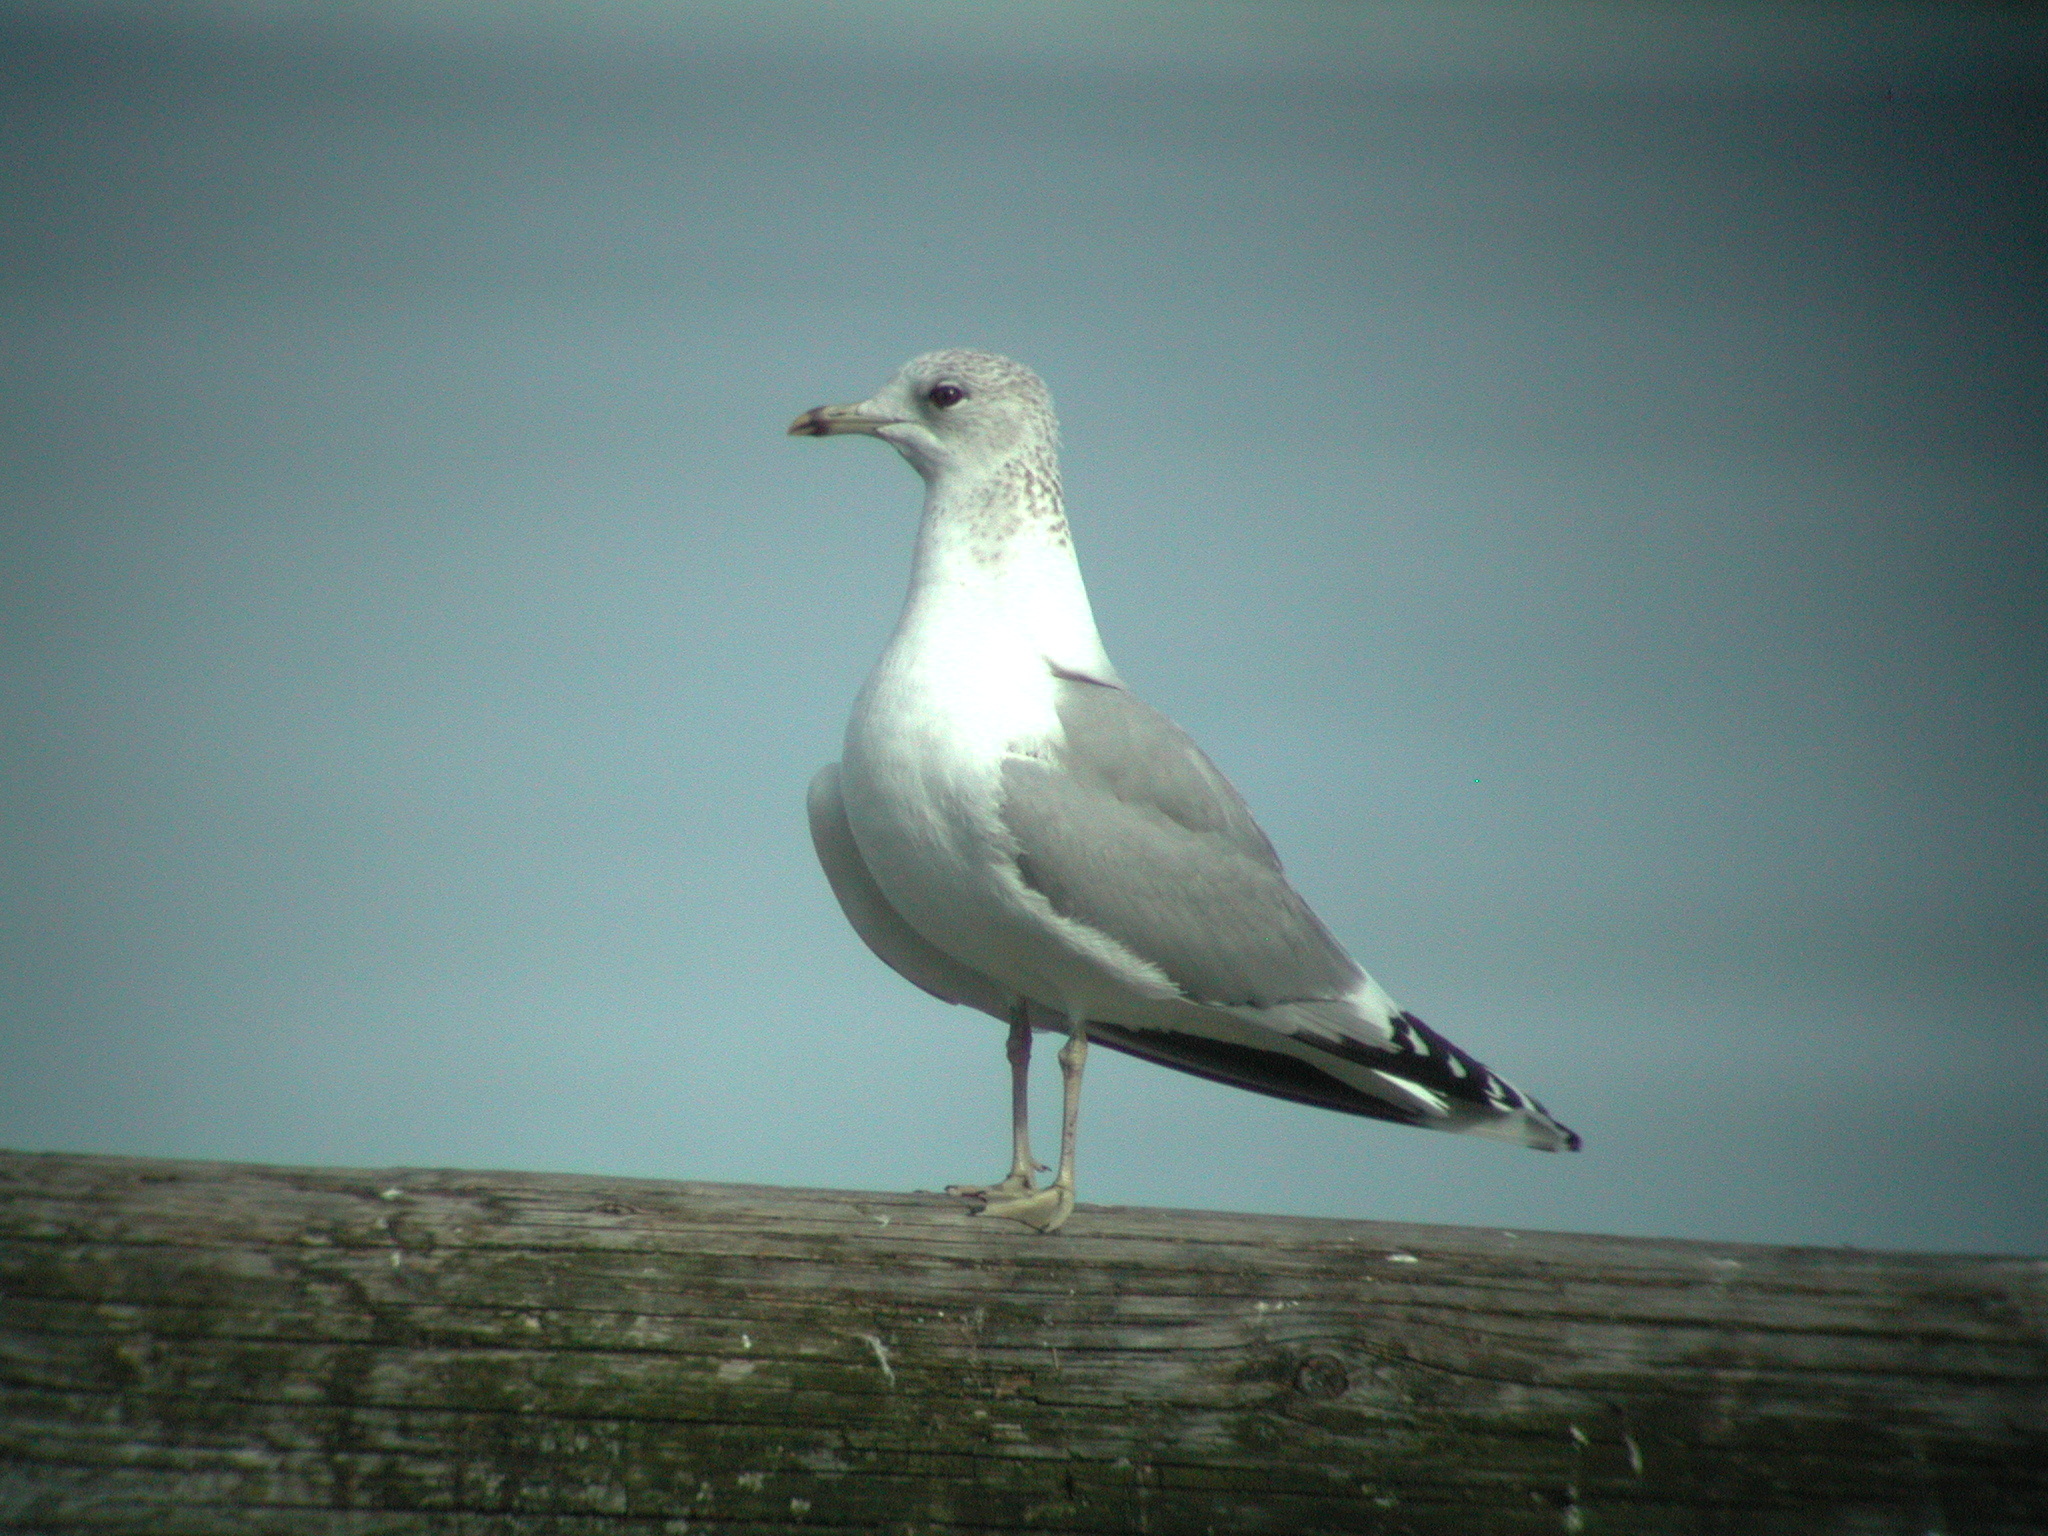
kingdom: Animalia
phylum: Chordata
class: Aves
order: Charadriiformes
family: Laridae
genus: Larus
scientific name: Larus canus
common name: Mew gull
